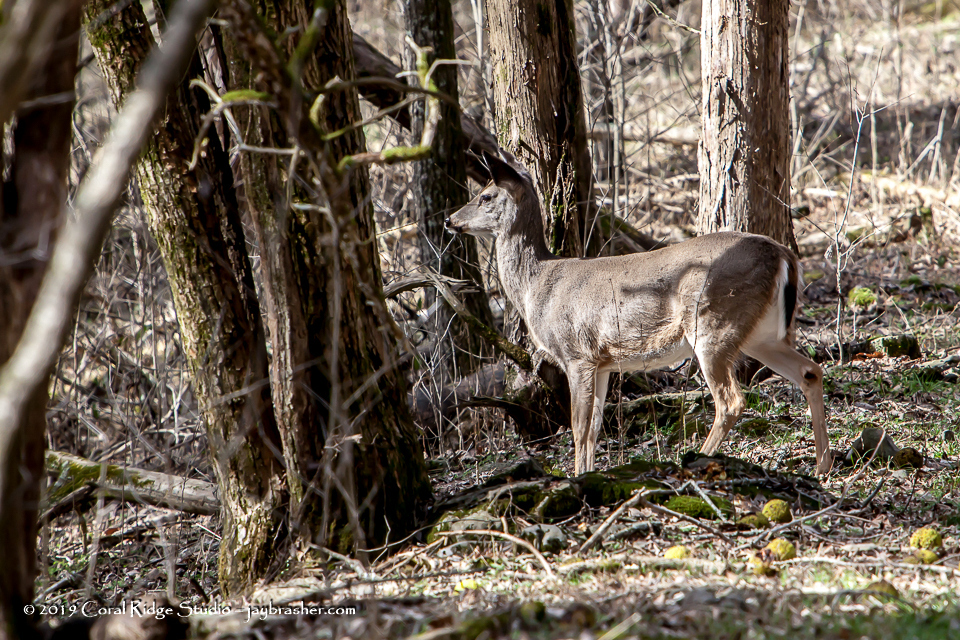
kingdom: Animalia
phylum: Chordata
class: Mammalia
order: Artiodactyla
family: Cervidae
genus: Odocoileus
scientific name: Odocoileus virginianus
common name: White-tailed deer
